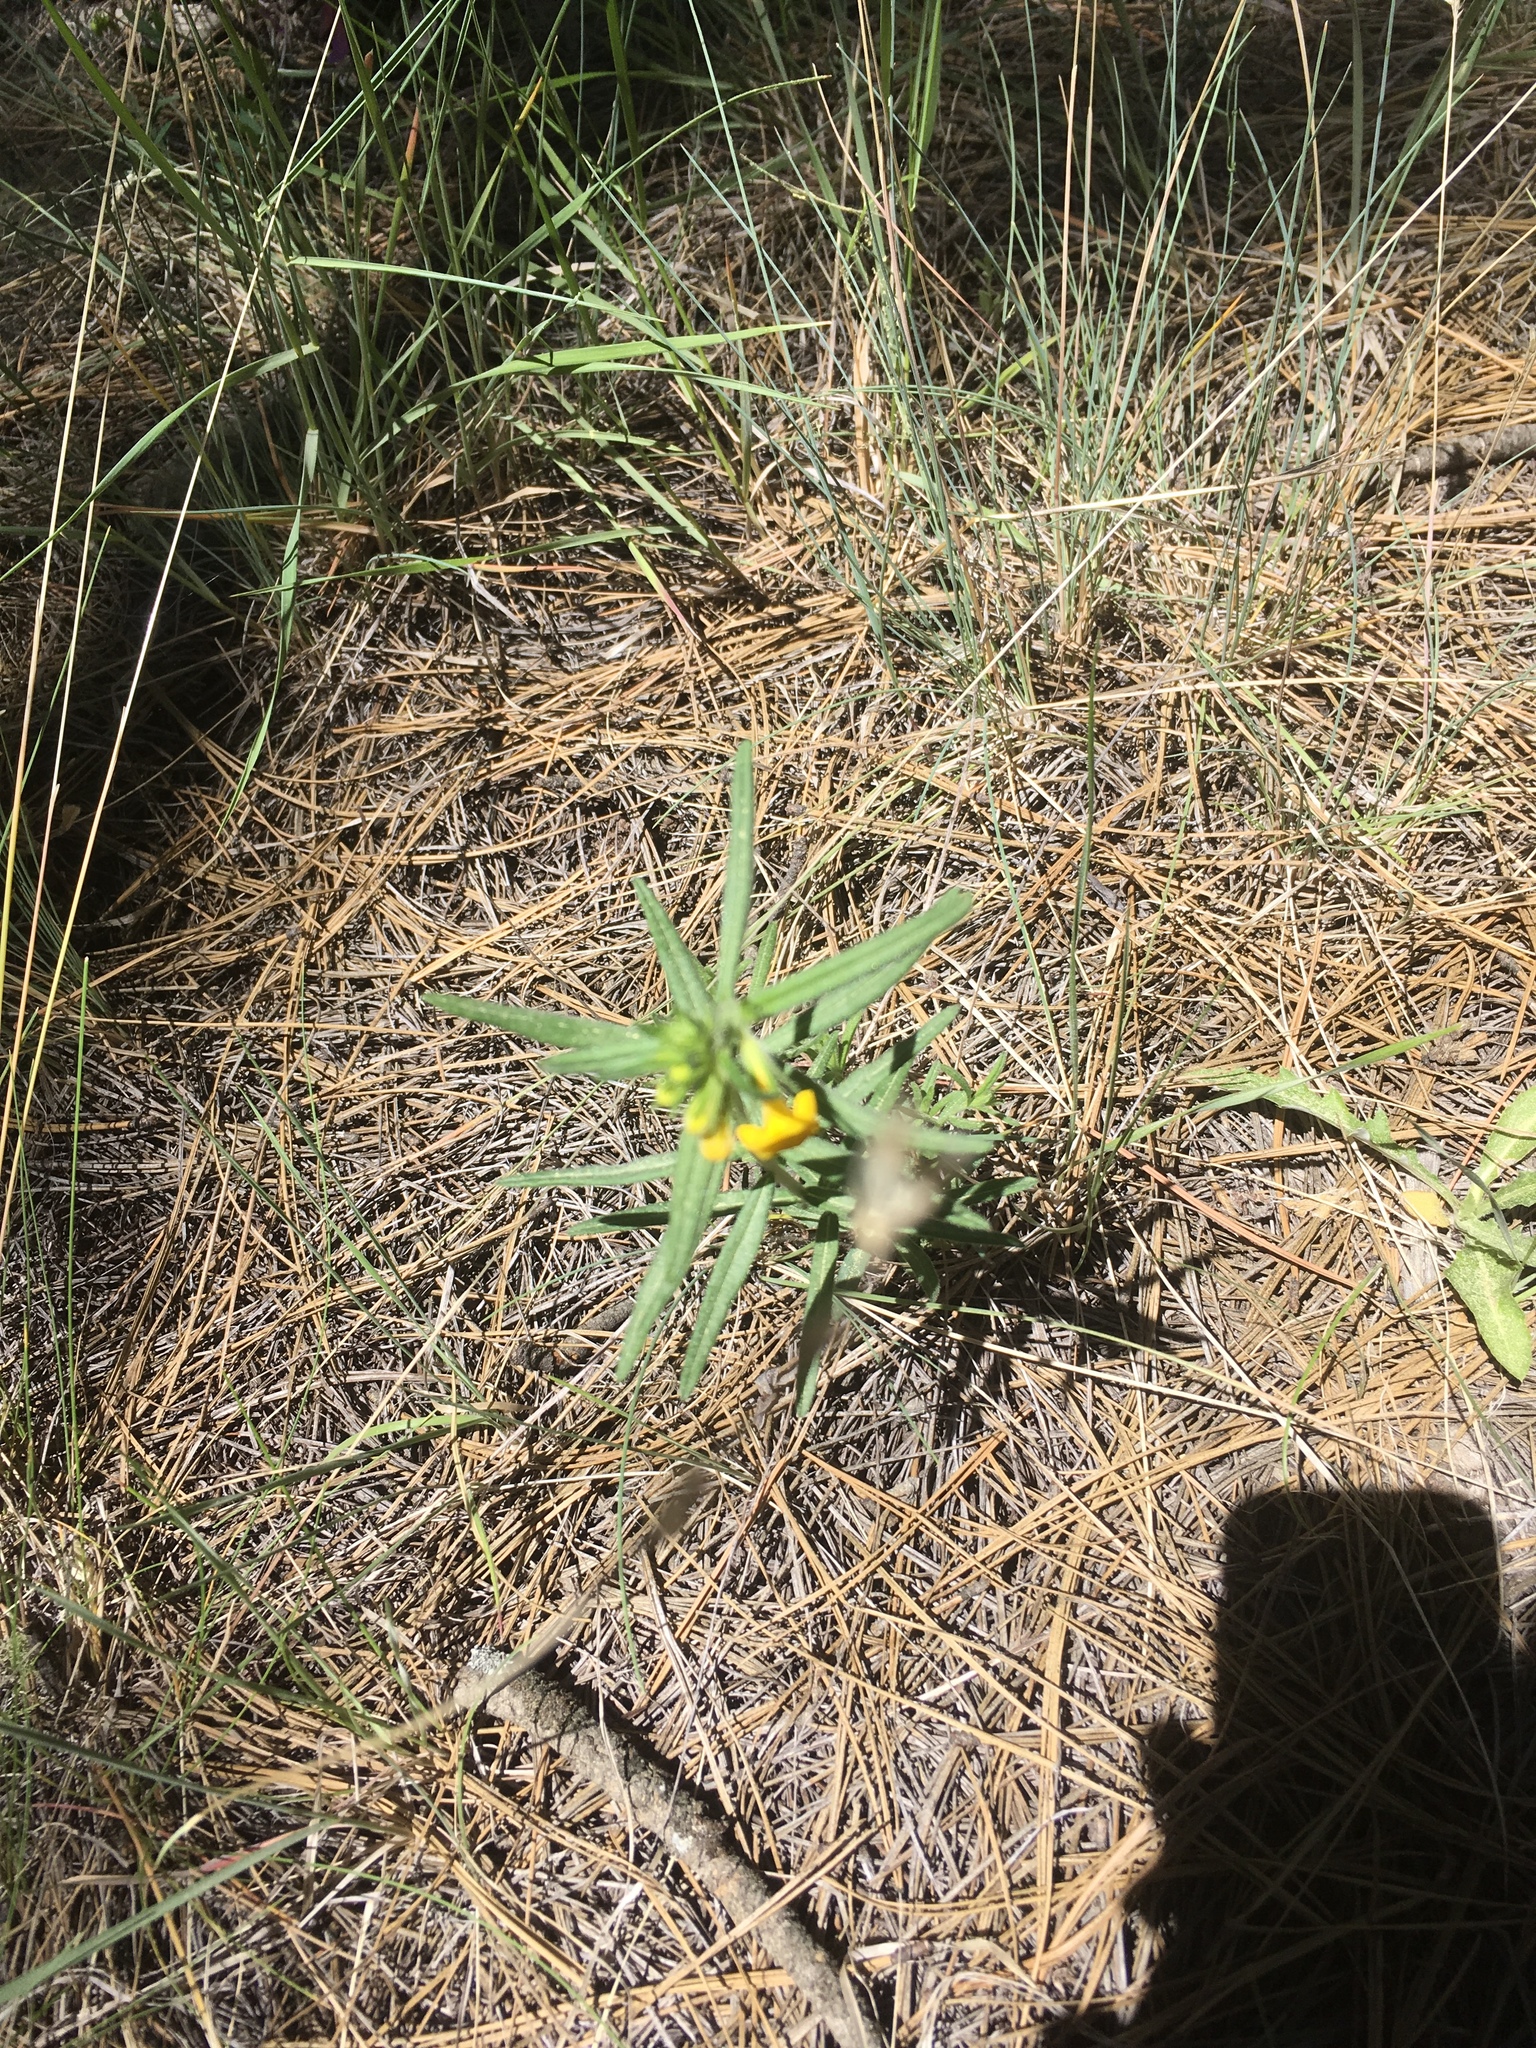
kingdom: Plantae
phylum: Tracheophyta
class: Magnoliopsida
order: Boraginales
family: Boraginaceae
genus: Lithospermum
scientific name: Lithospermum multiflorum
